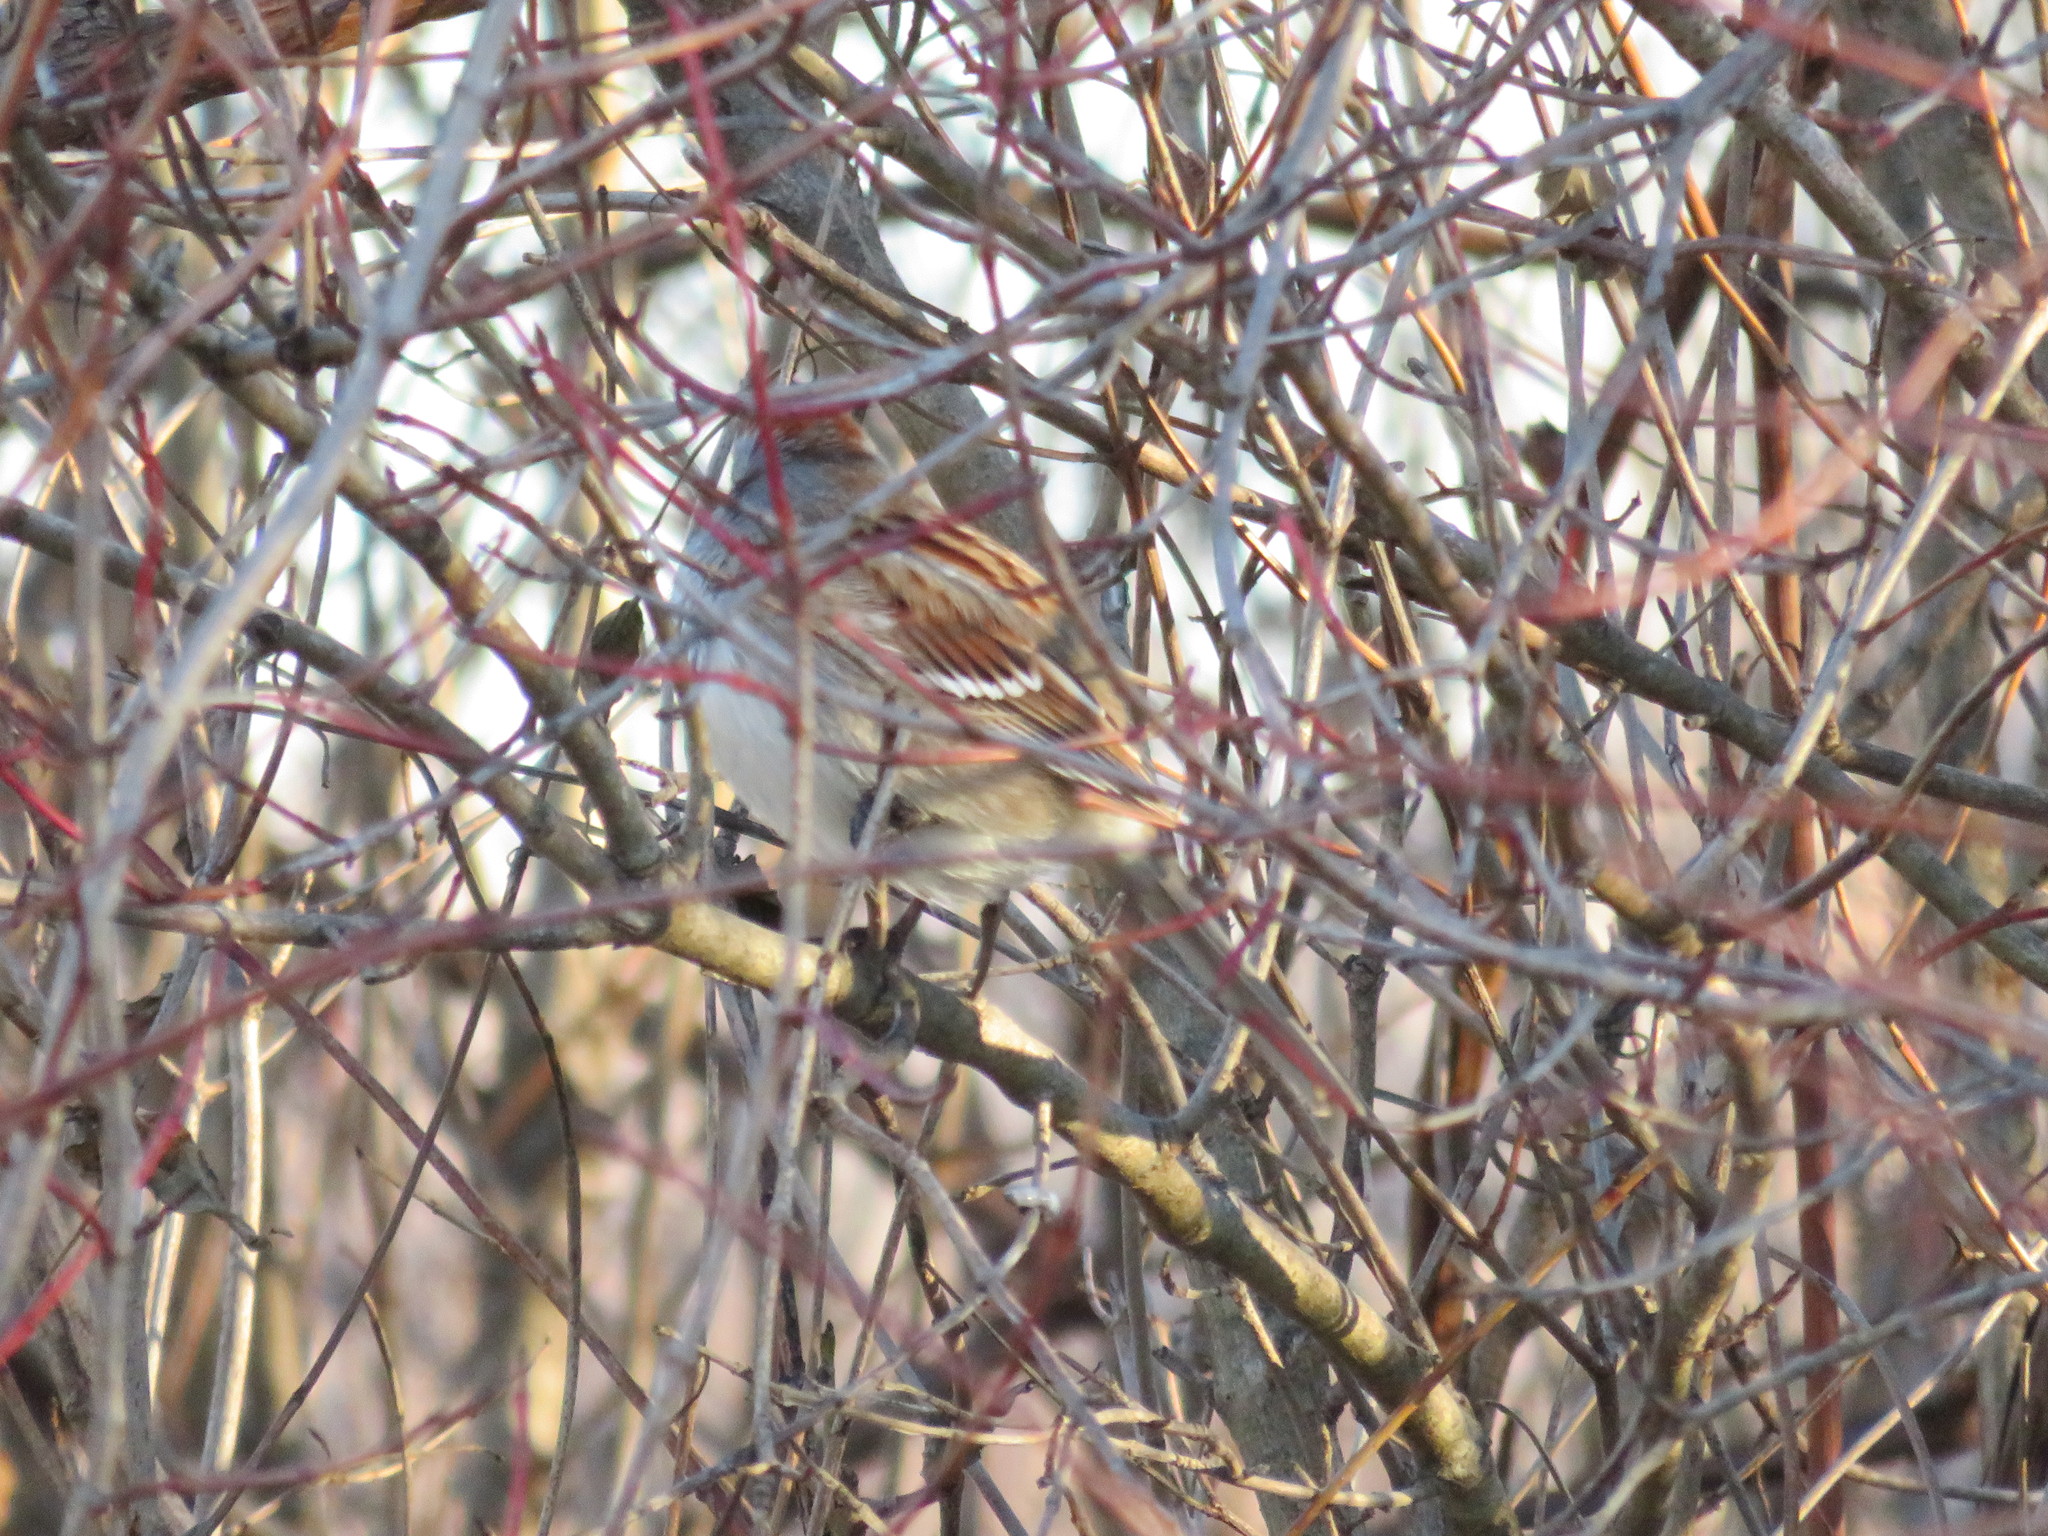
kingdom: Animalia
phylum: Chordata
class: Aves
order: Passeriformes
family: Passerellidae
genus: Spizelloides
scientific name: Spizelloides arborea
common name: American tree sparrow
